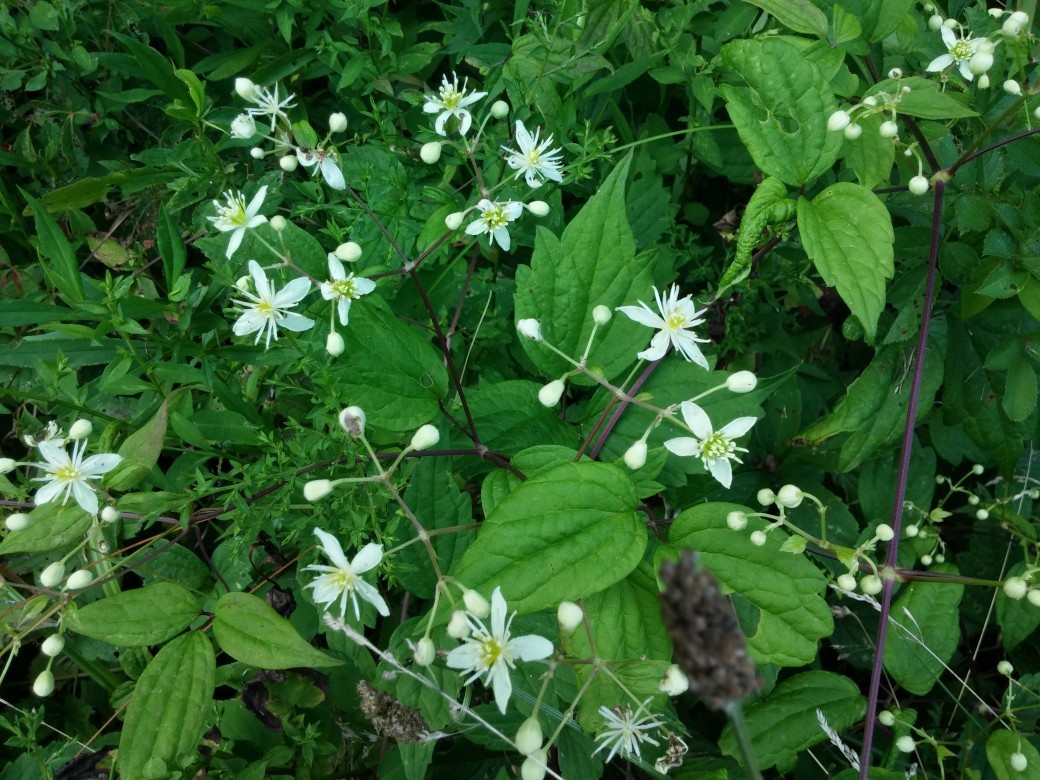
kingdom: Plantae
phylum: Tracheophyta
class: Magnoliopsida
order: Ranunculales
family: Ranunculaceae
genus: Clematis
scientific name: Clematis virginiana
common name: Virgin's-bower
